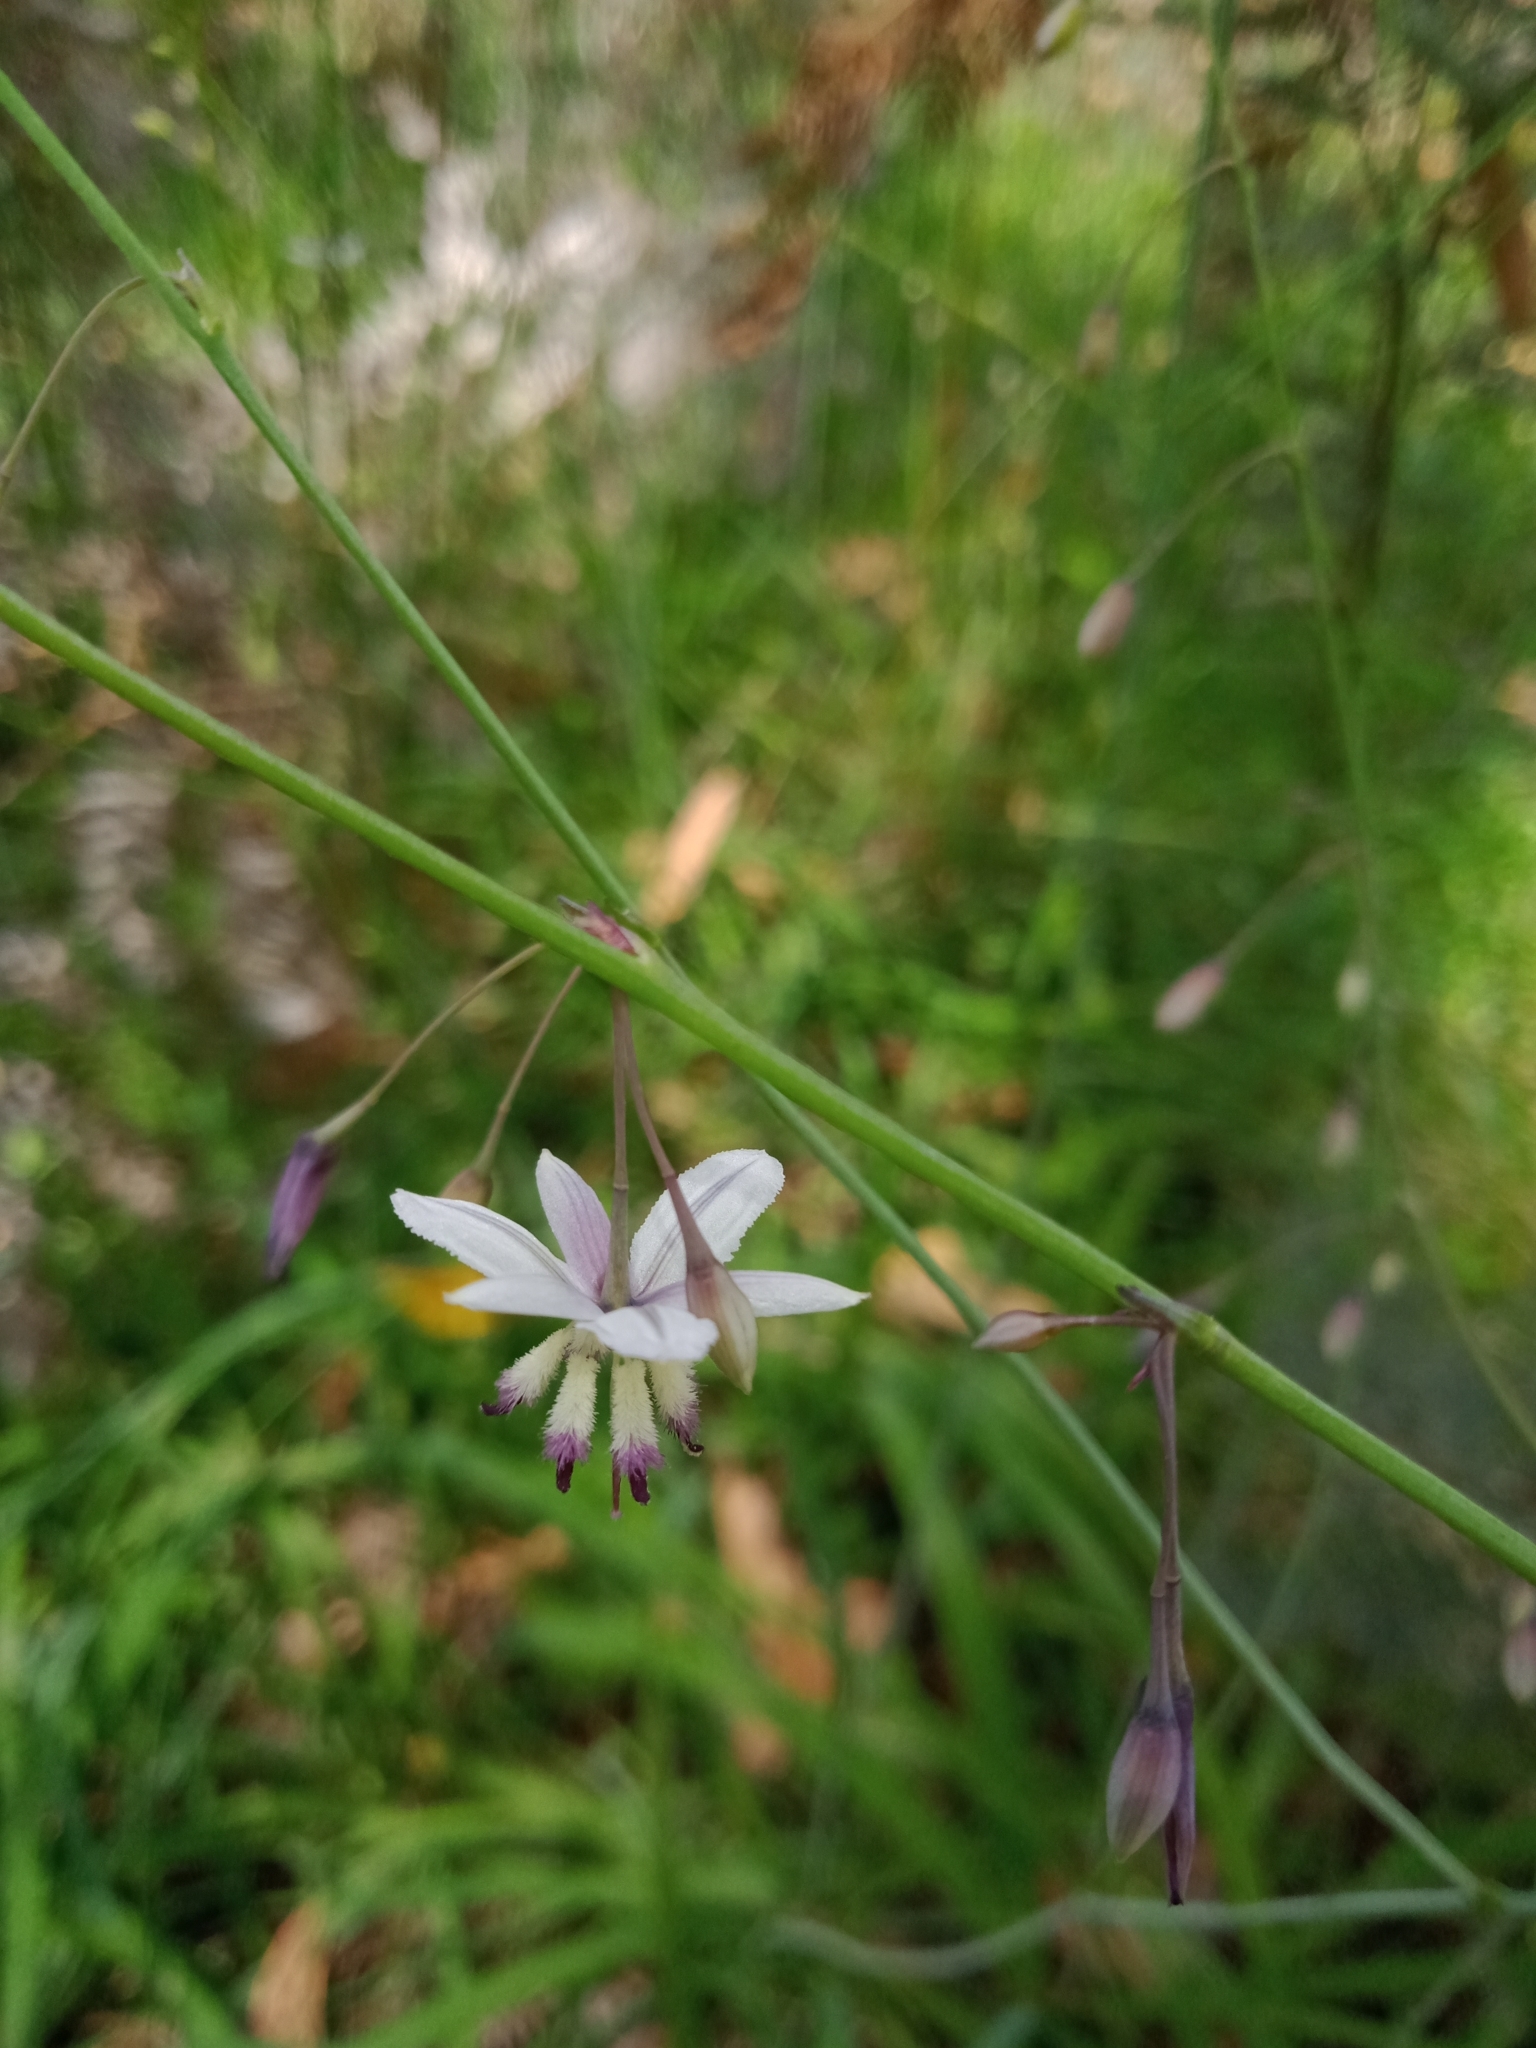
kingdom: Plantae
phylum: Tracheophyta
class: Liliopsida
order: Asparagales
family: Asparagaceae
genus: Arthropodium
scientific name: Arthropodium milleflorum
